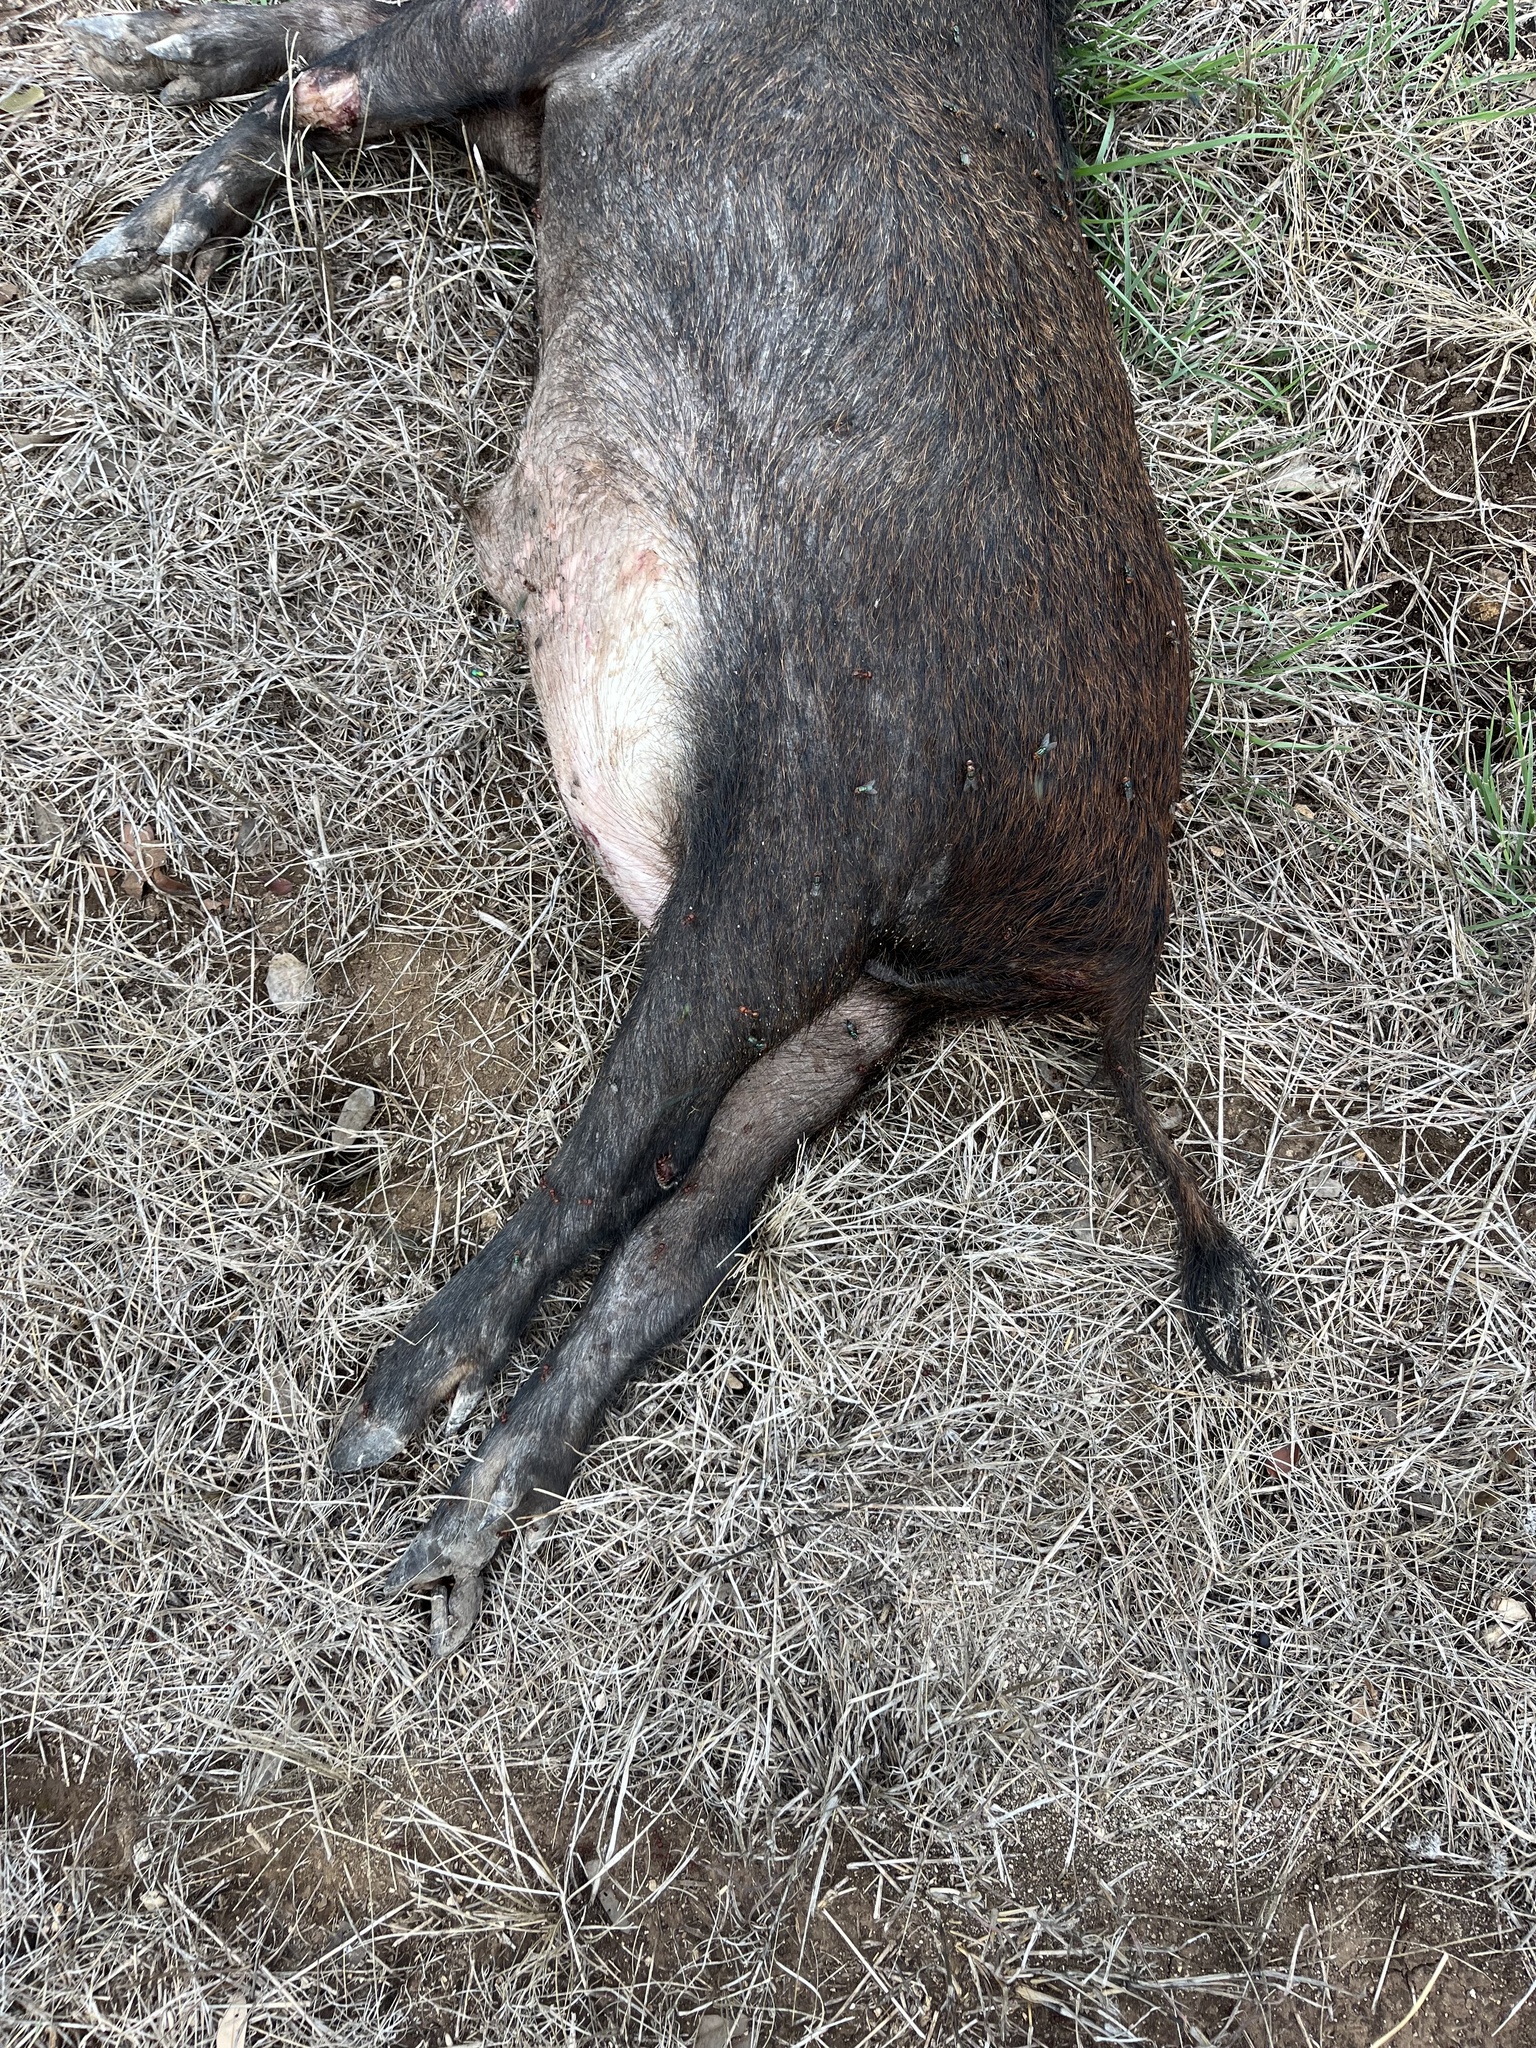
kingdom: Animalia
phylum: Chordata
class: Mammalia
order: Artiodactyla
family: Suidae
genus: Sus
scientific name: Sus scrofa
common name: Wild boar
